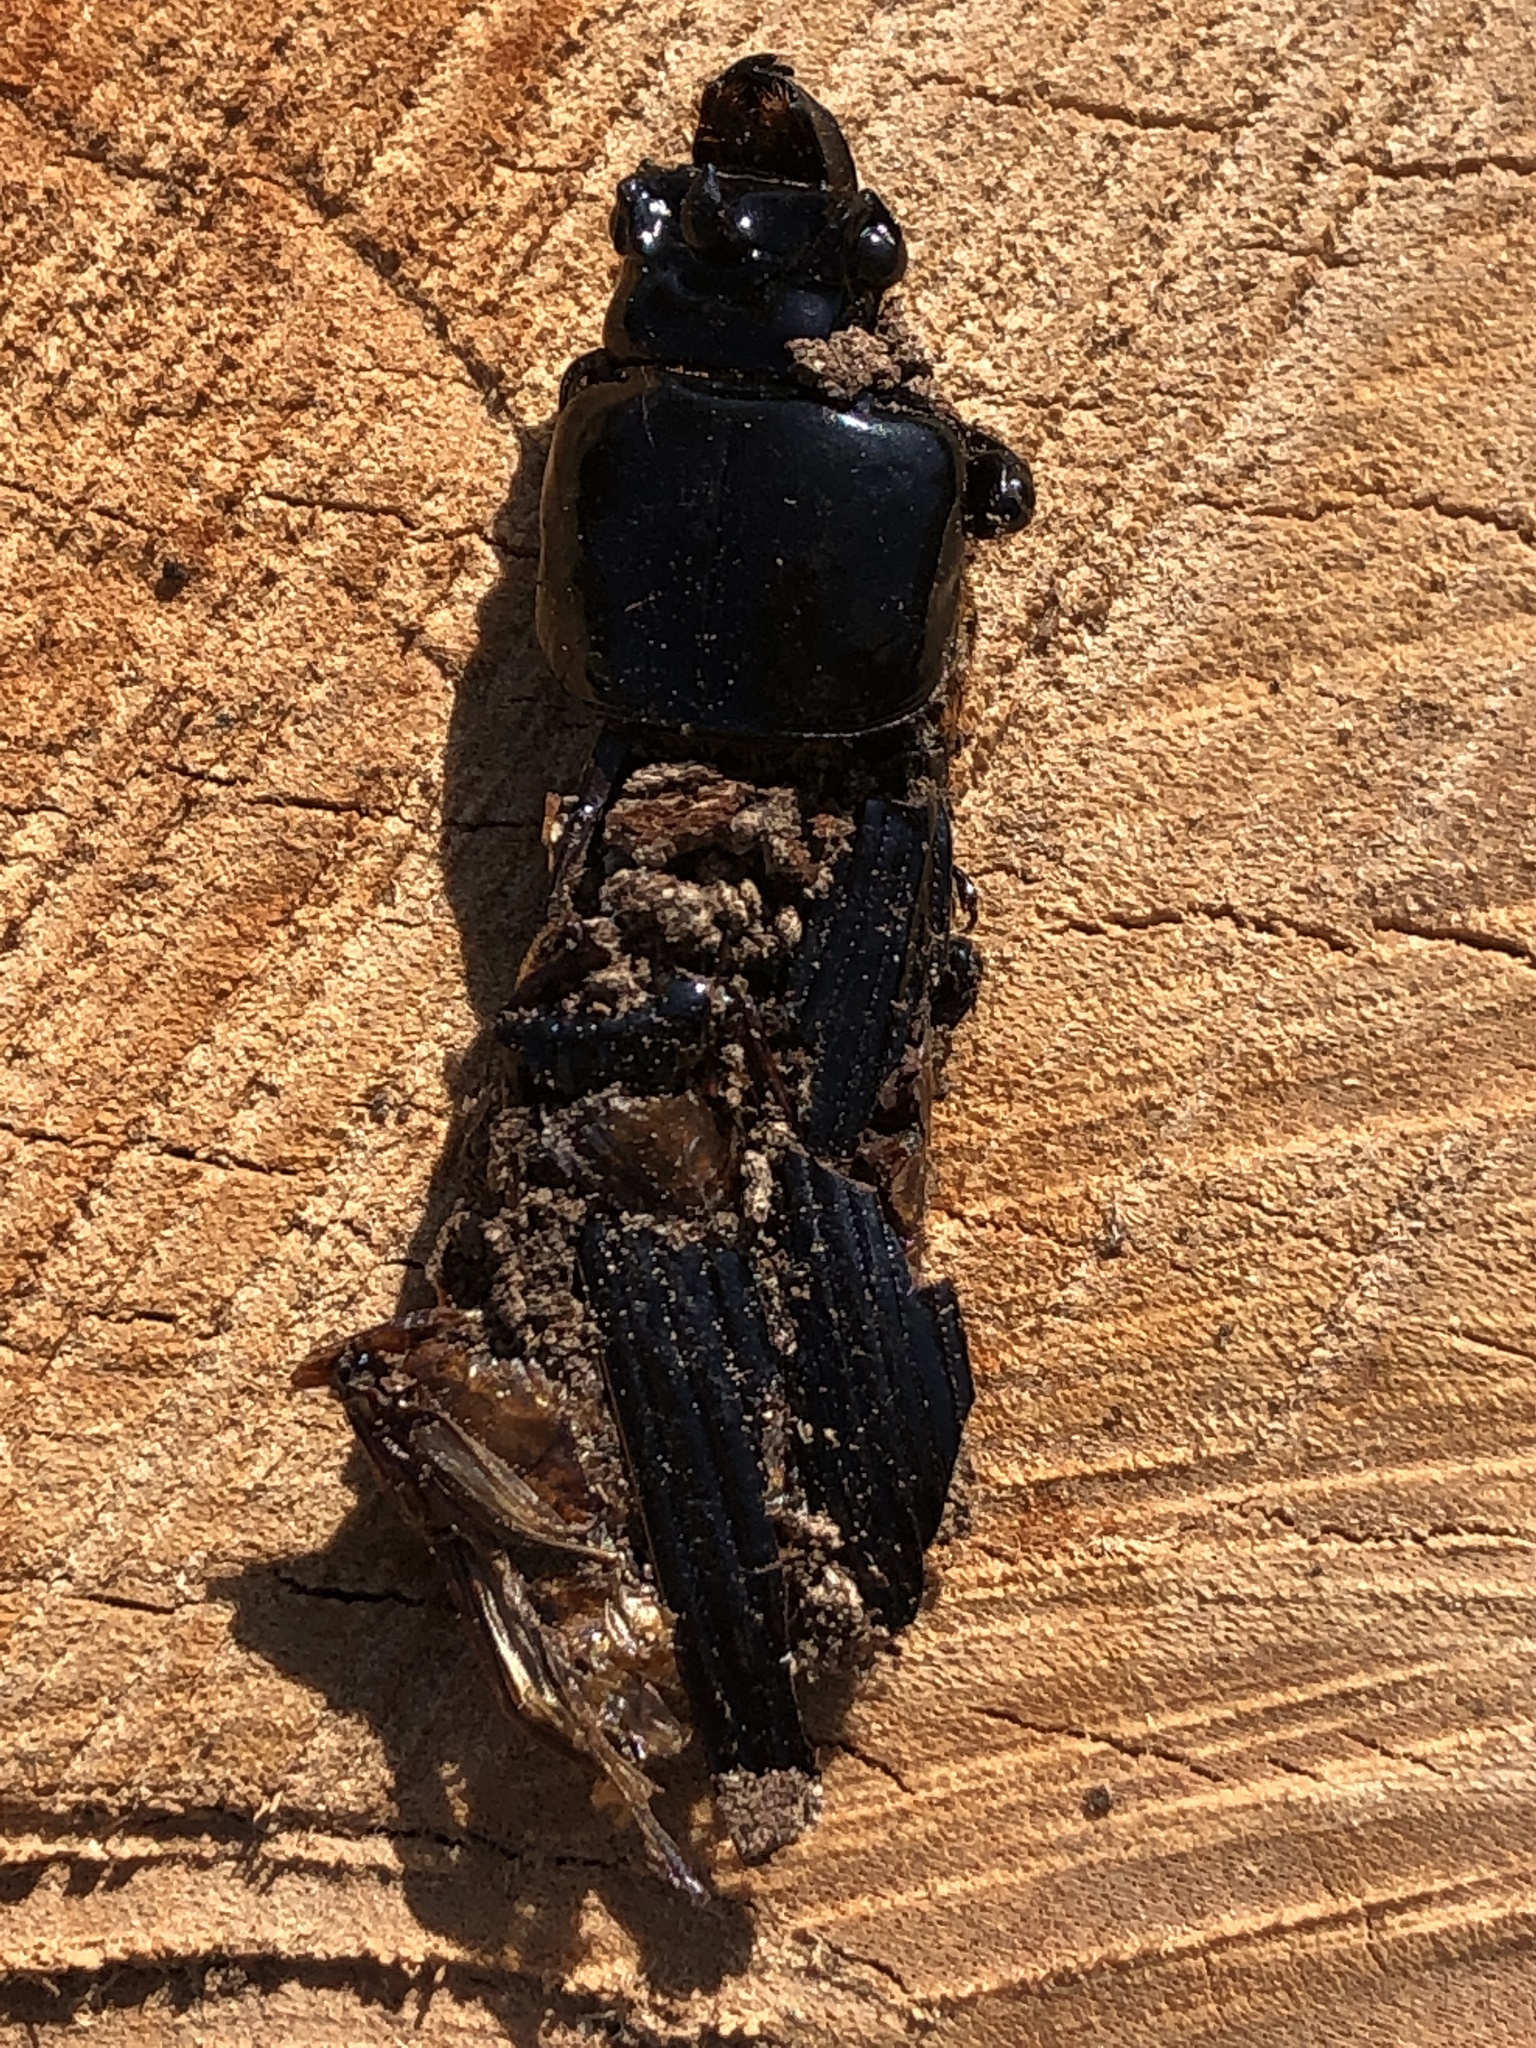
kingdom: Animalia
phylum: Arthropoda
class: Insecta
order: Coleoptera
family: Passalidae
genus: Odontotaenius
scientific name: Odontotaenius disjunctus
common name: Patent leather beetle
